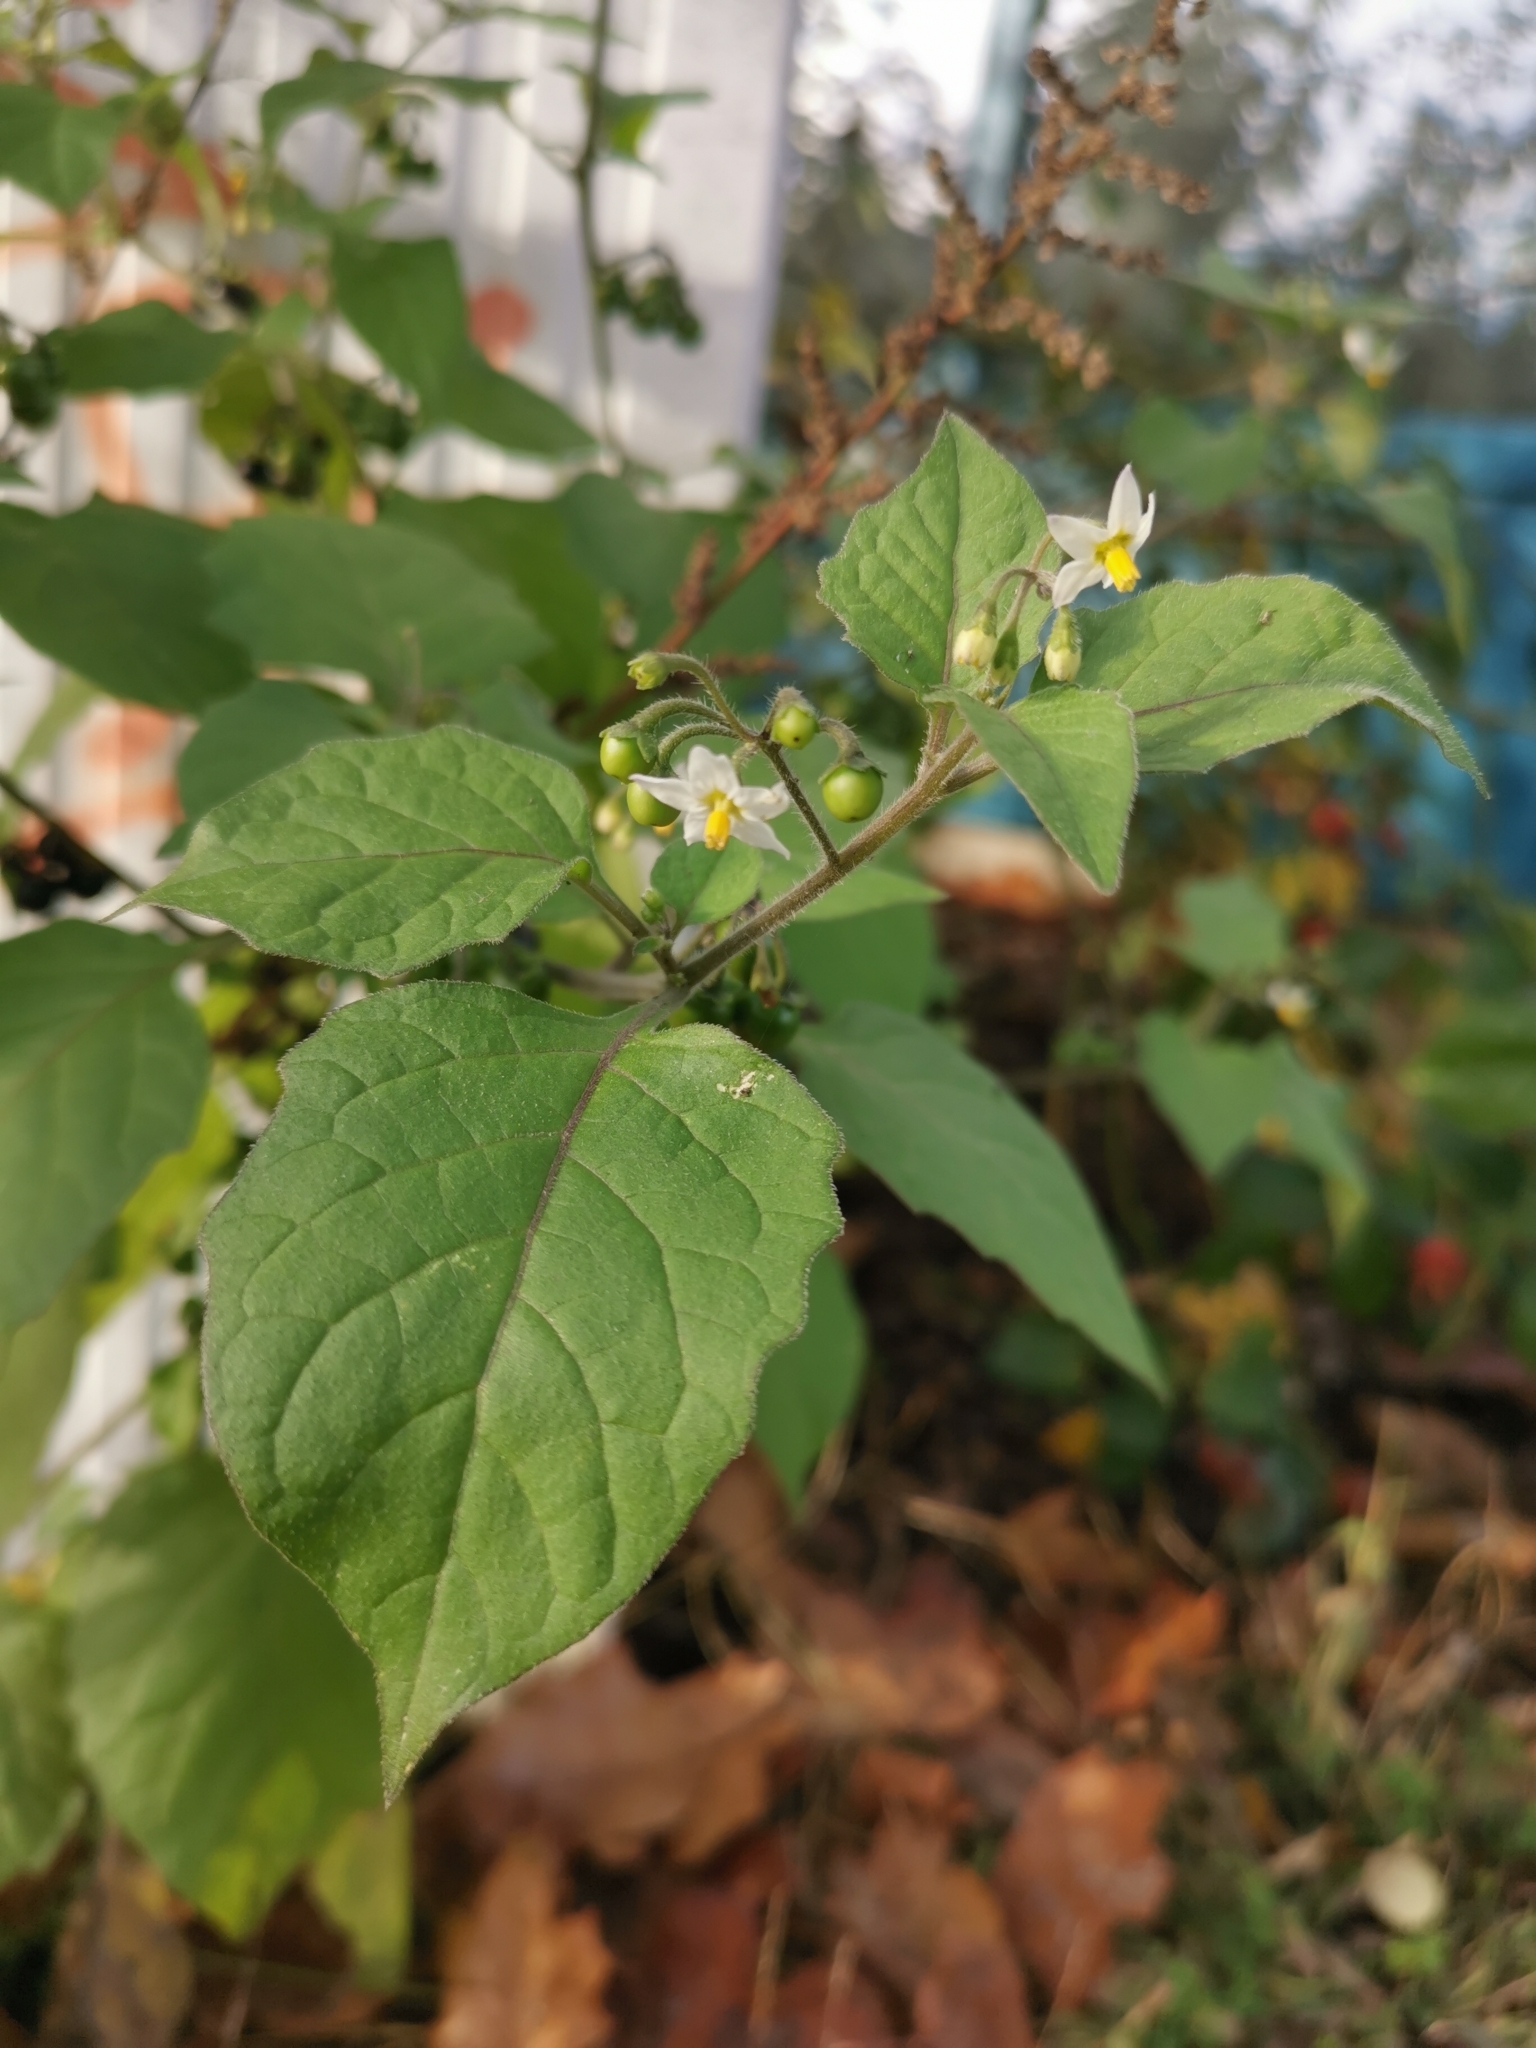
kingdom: Plantae
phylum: Tracheophyta
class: Magnoliopsida
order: Solanales
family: Solanaceae
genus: Solanum
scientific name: Solanum nigrum
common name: Black nightshade
